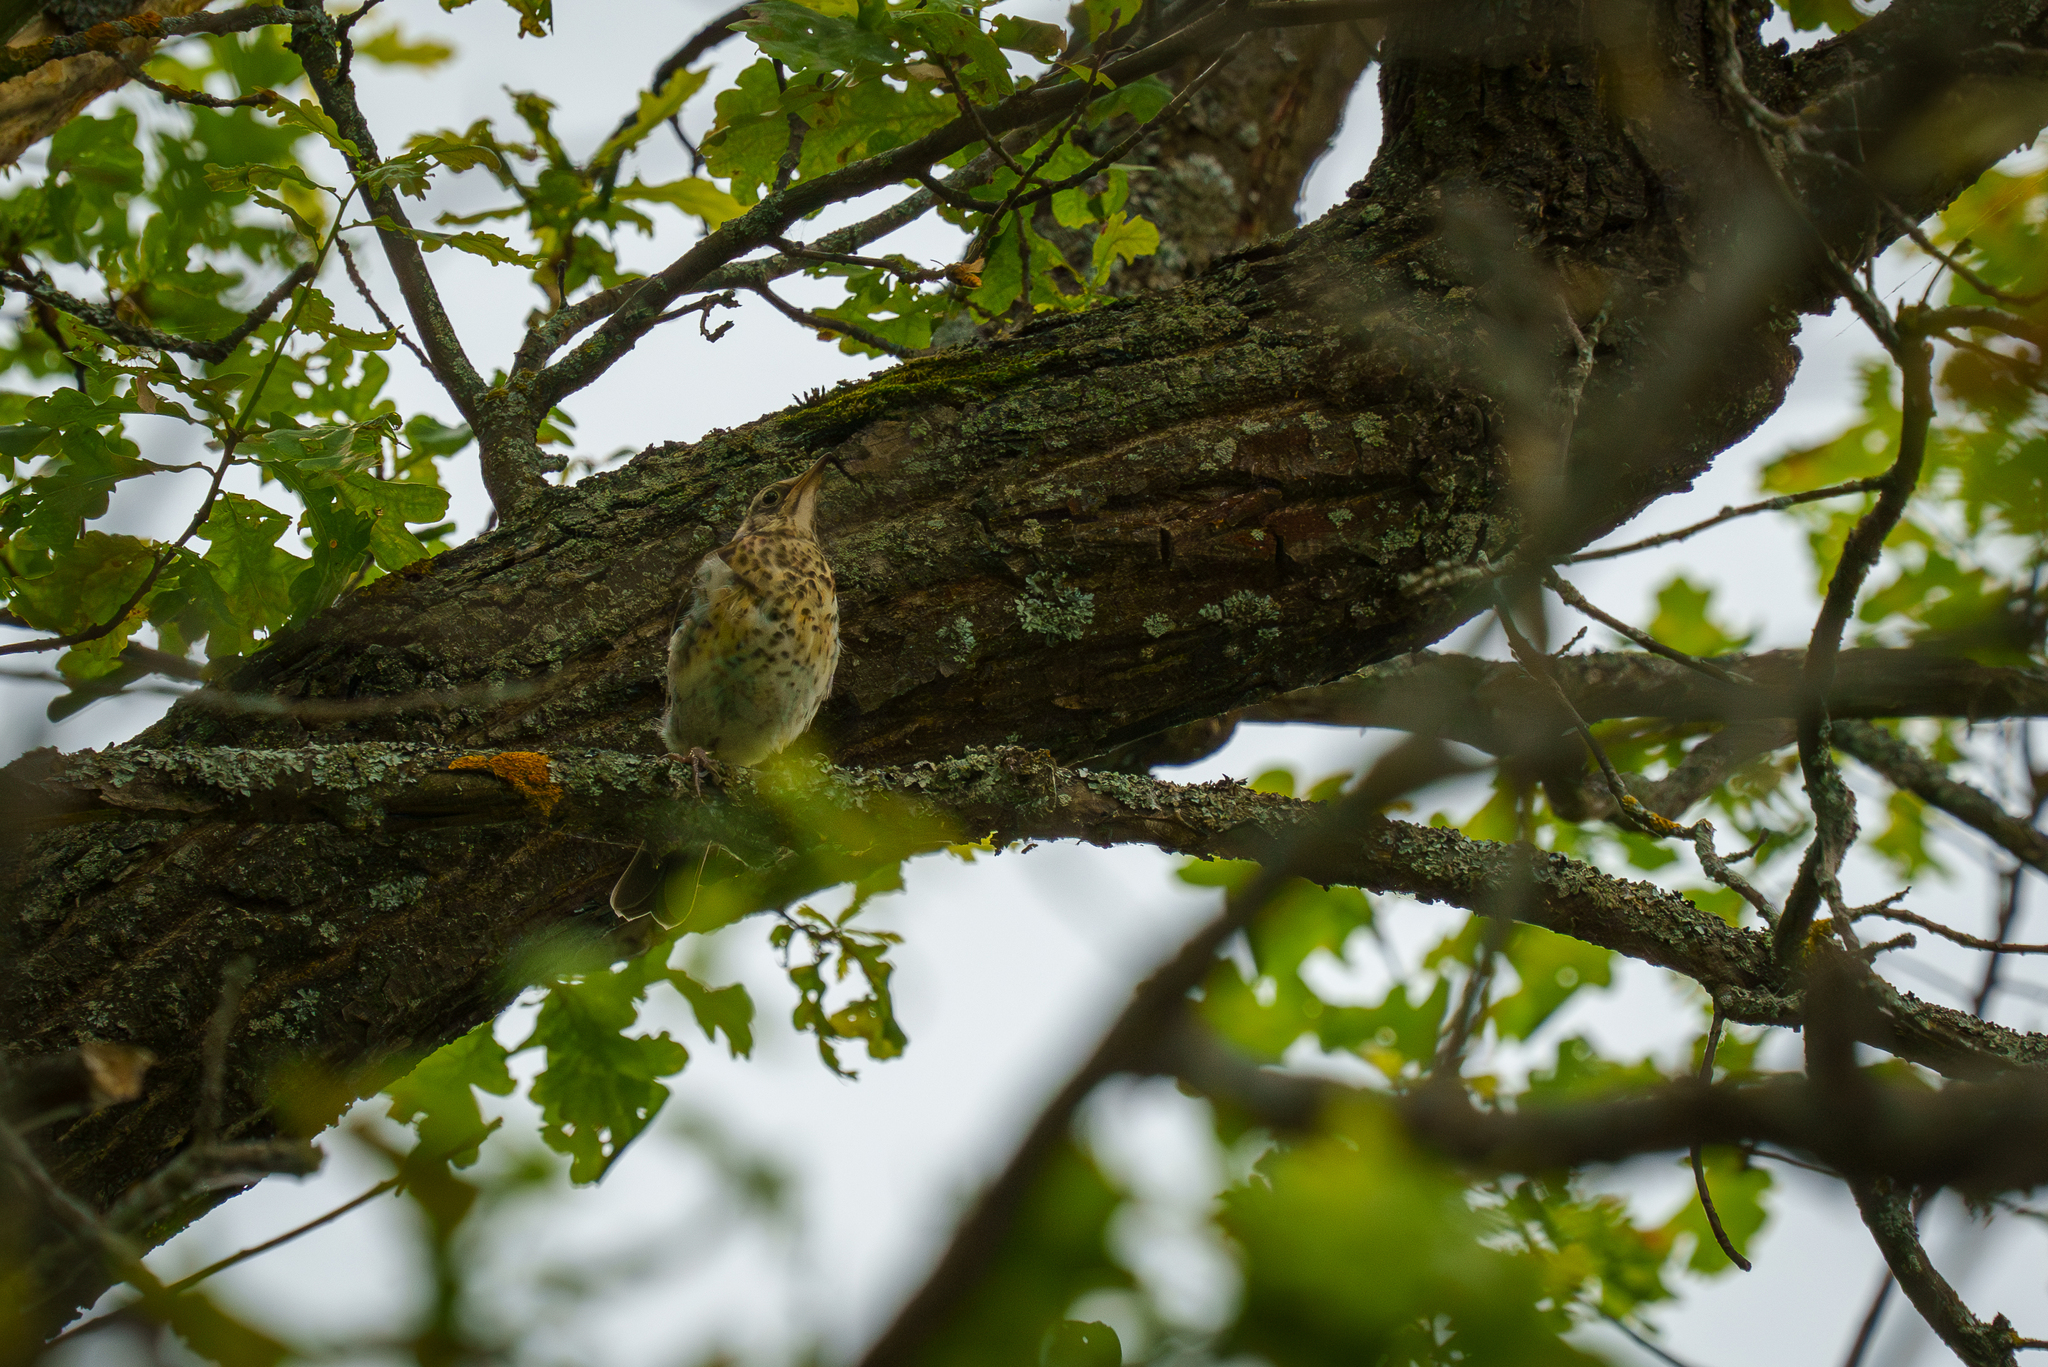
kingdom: Animalia
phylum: Chordata
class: Aves
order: Passeriformes
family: Turdidae
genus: Turdus
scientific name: Turdus pilaris
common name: Fieldfare
